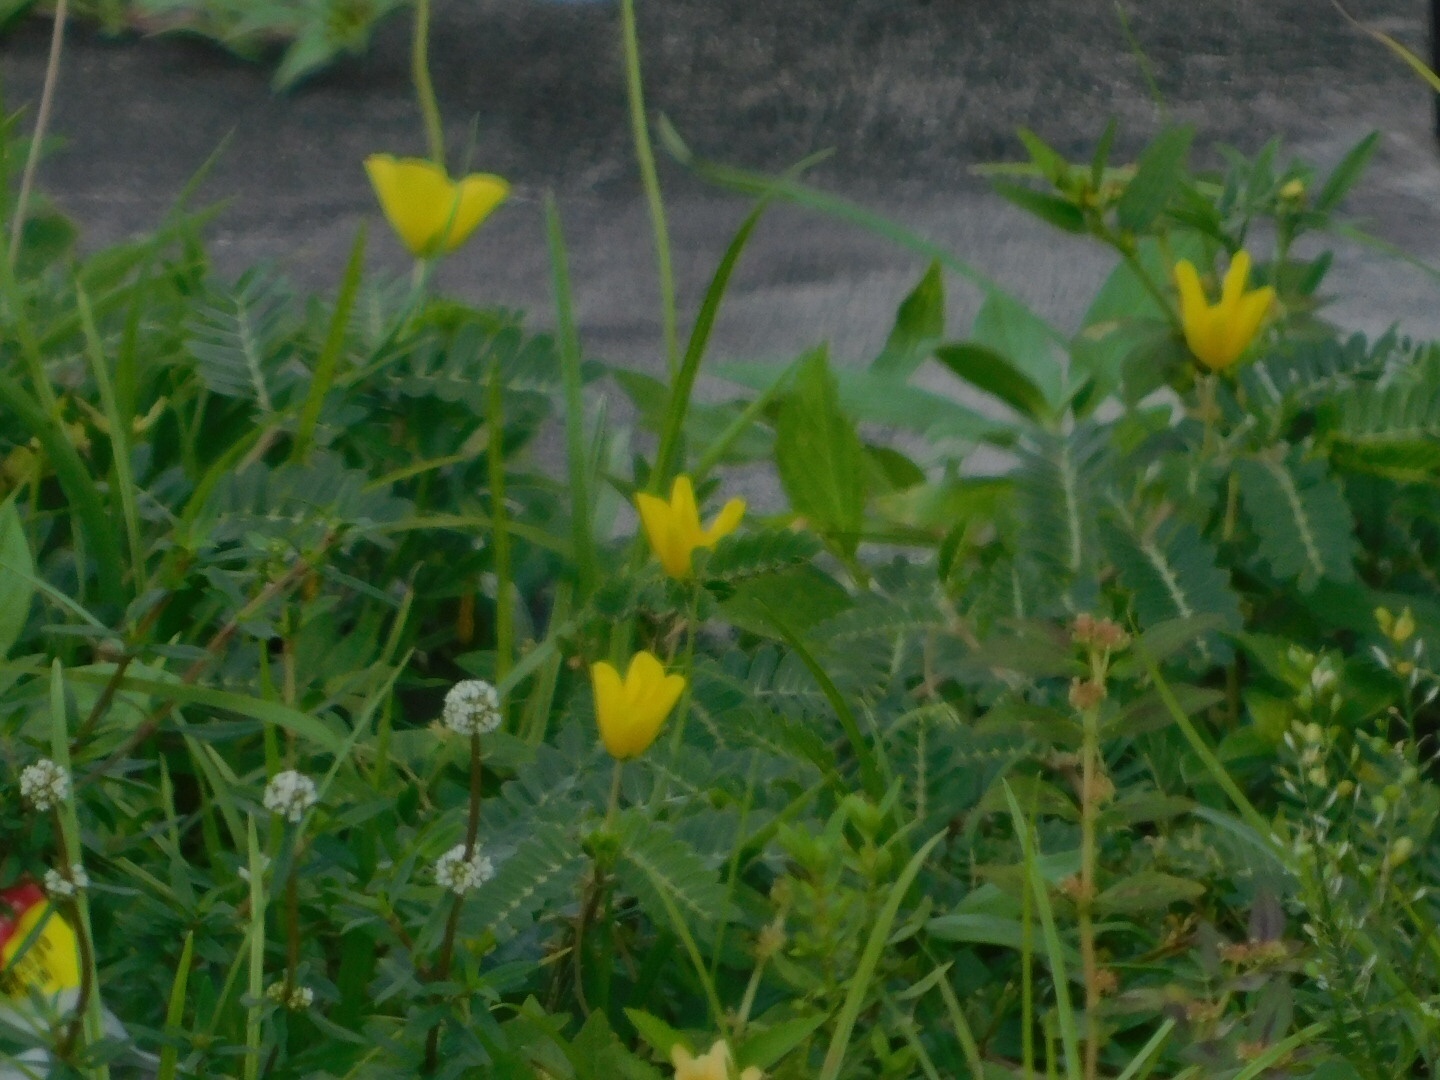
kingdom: Plantae
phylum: Tracheophyta
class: Magnoliopsida
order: Zygophyllales
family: Zygophyllaceae
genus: Tribulus
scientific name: Tribulus cistoides
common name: Jamaican feverplant
